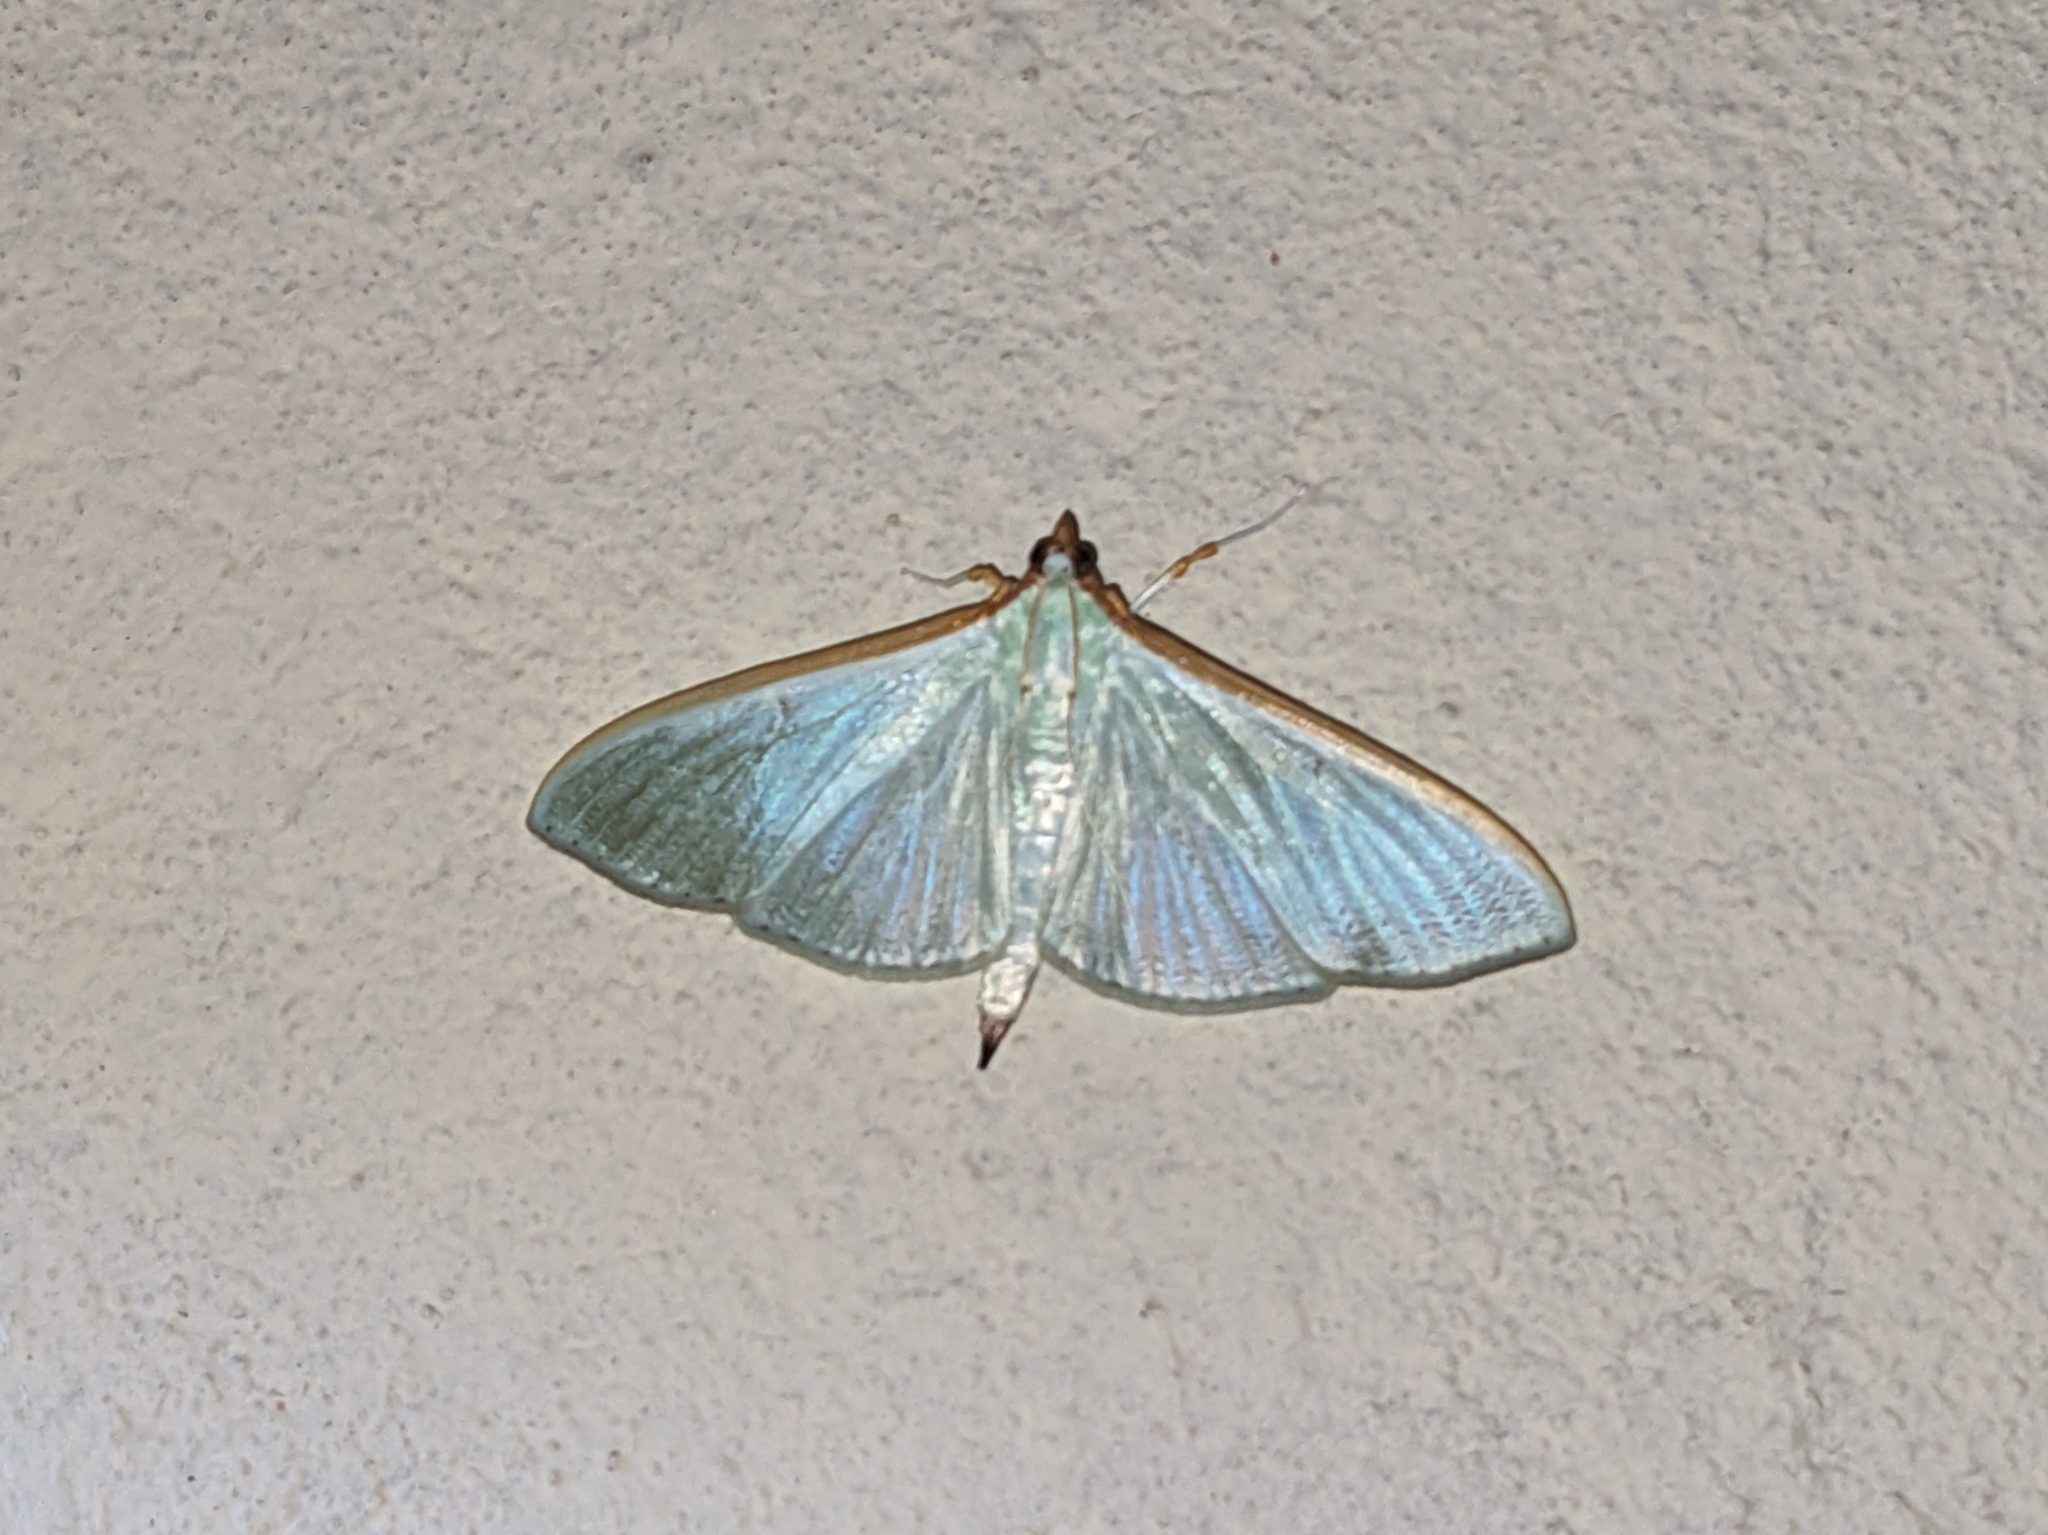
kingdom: Animalia
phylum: Arthropoda
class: Insecta
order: Lepidoptera
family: Crambidae
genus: Stemorrhages
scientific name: Stemorrhages sericea
